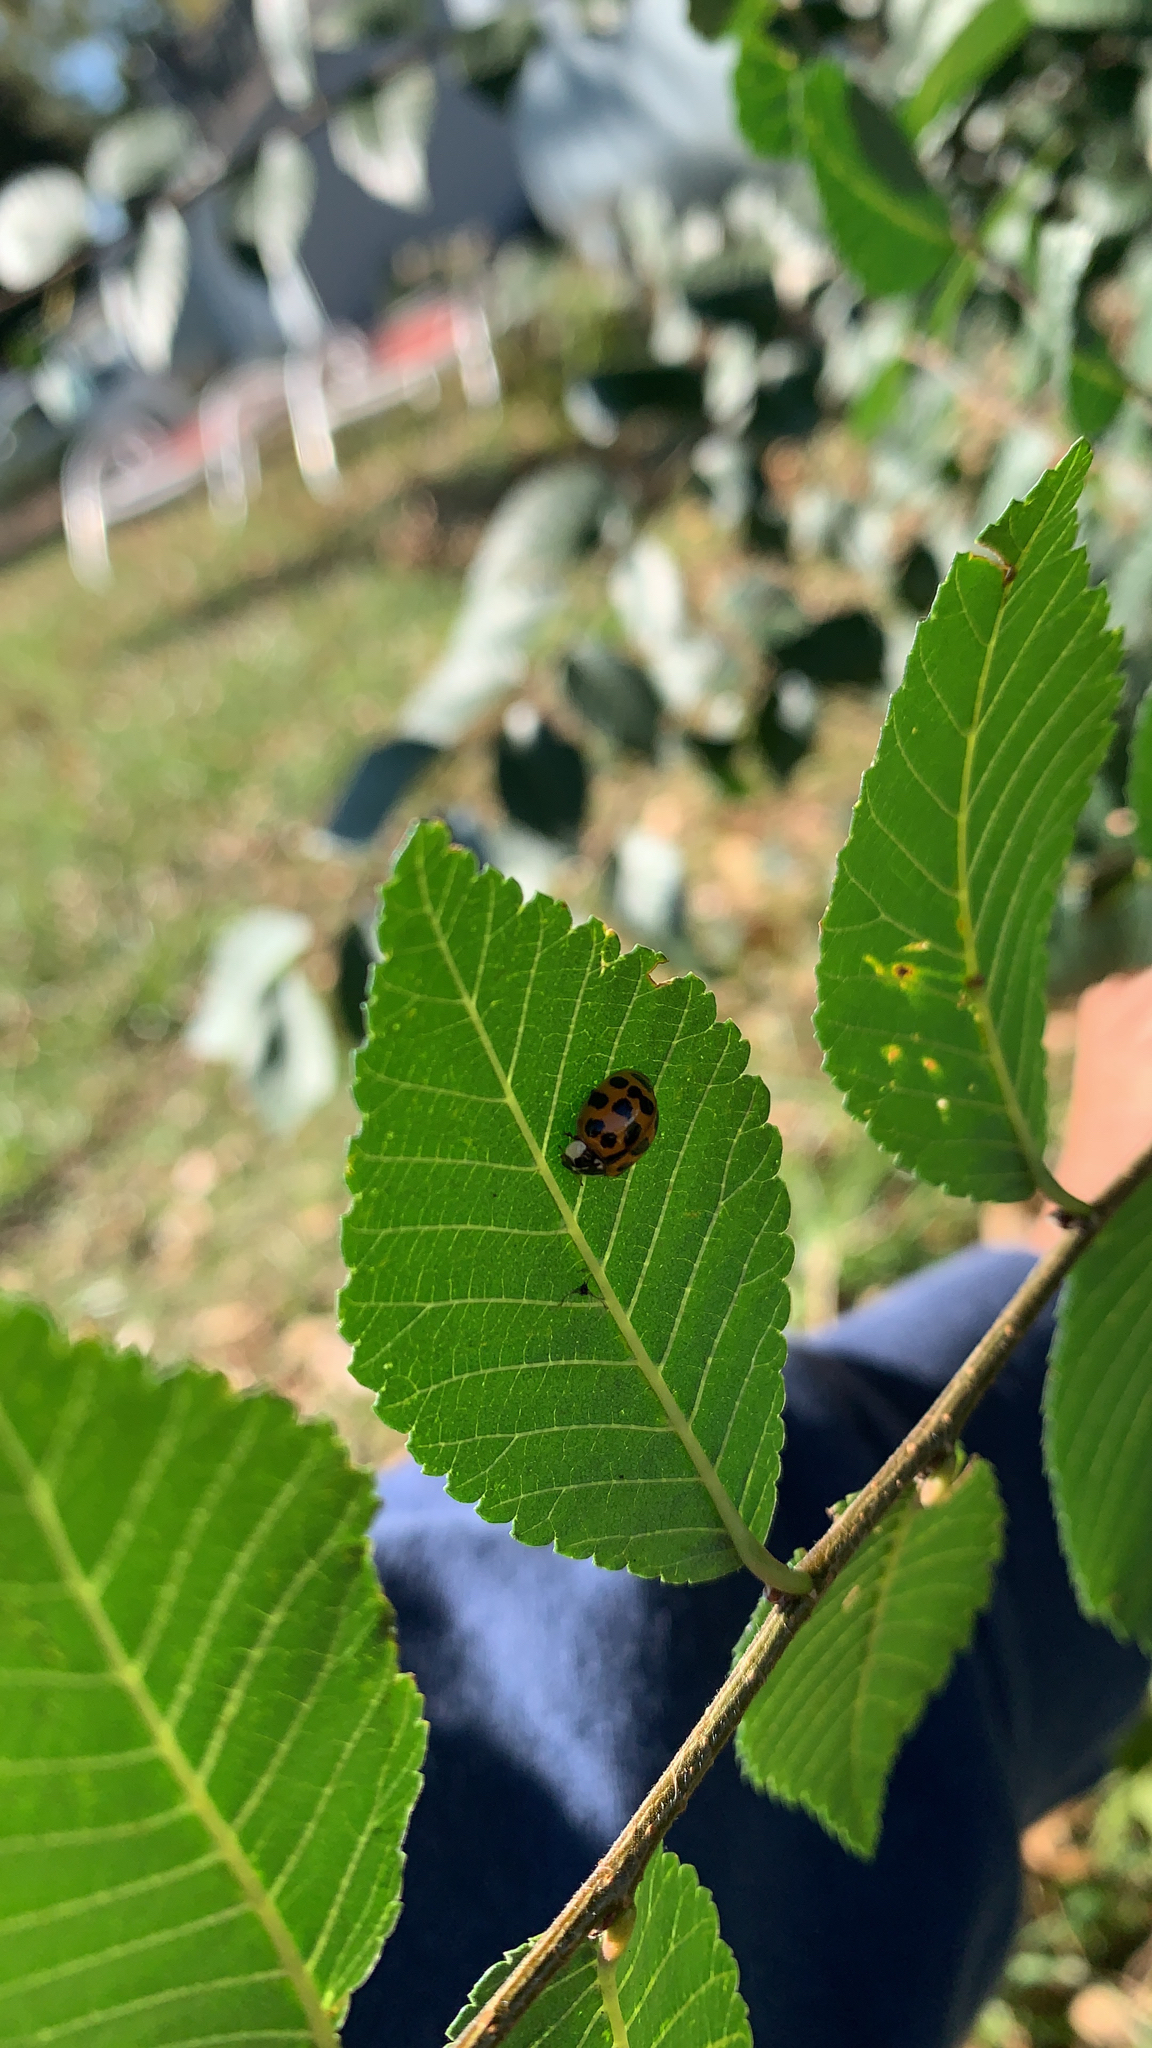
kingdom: Animalia
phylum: Arthropoda
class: Insecta
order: Coleoptera
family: Coccinellidae
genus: Harmonia
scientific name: Harmonia axyridis
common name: Harlequin ladybird
